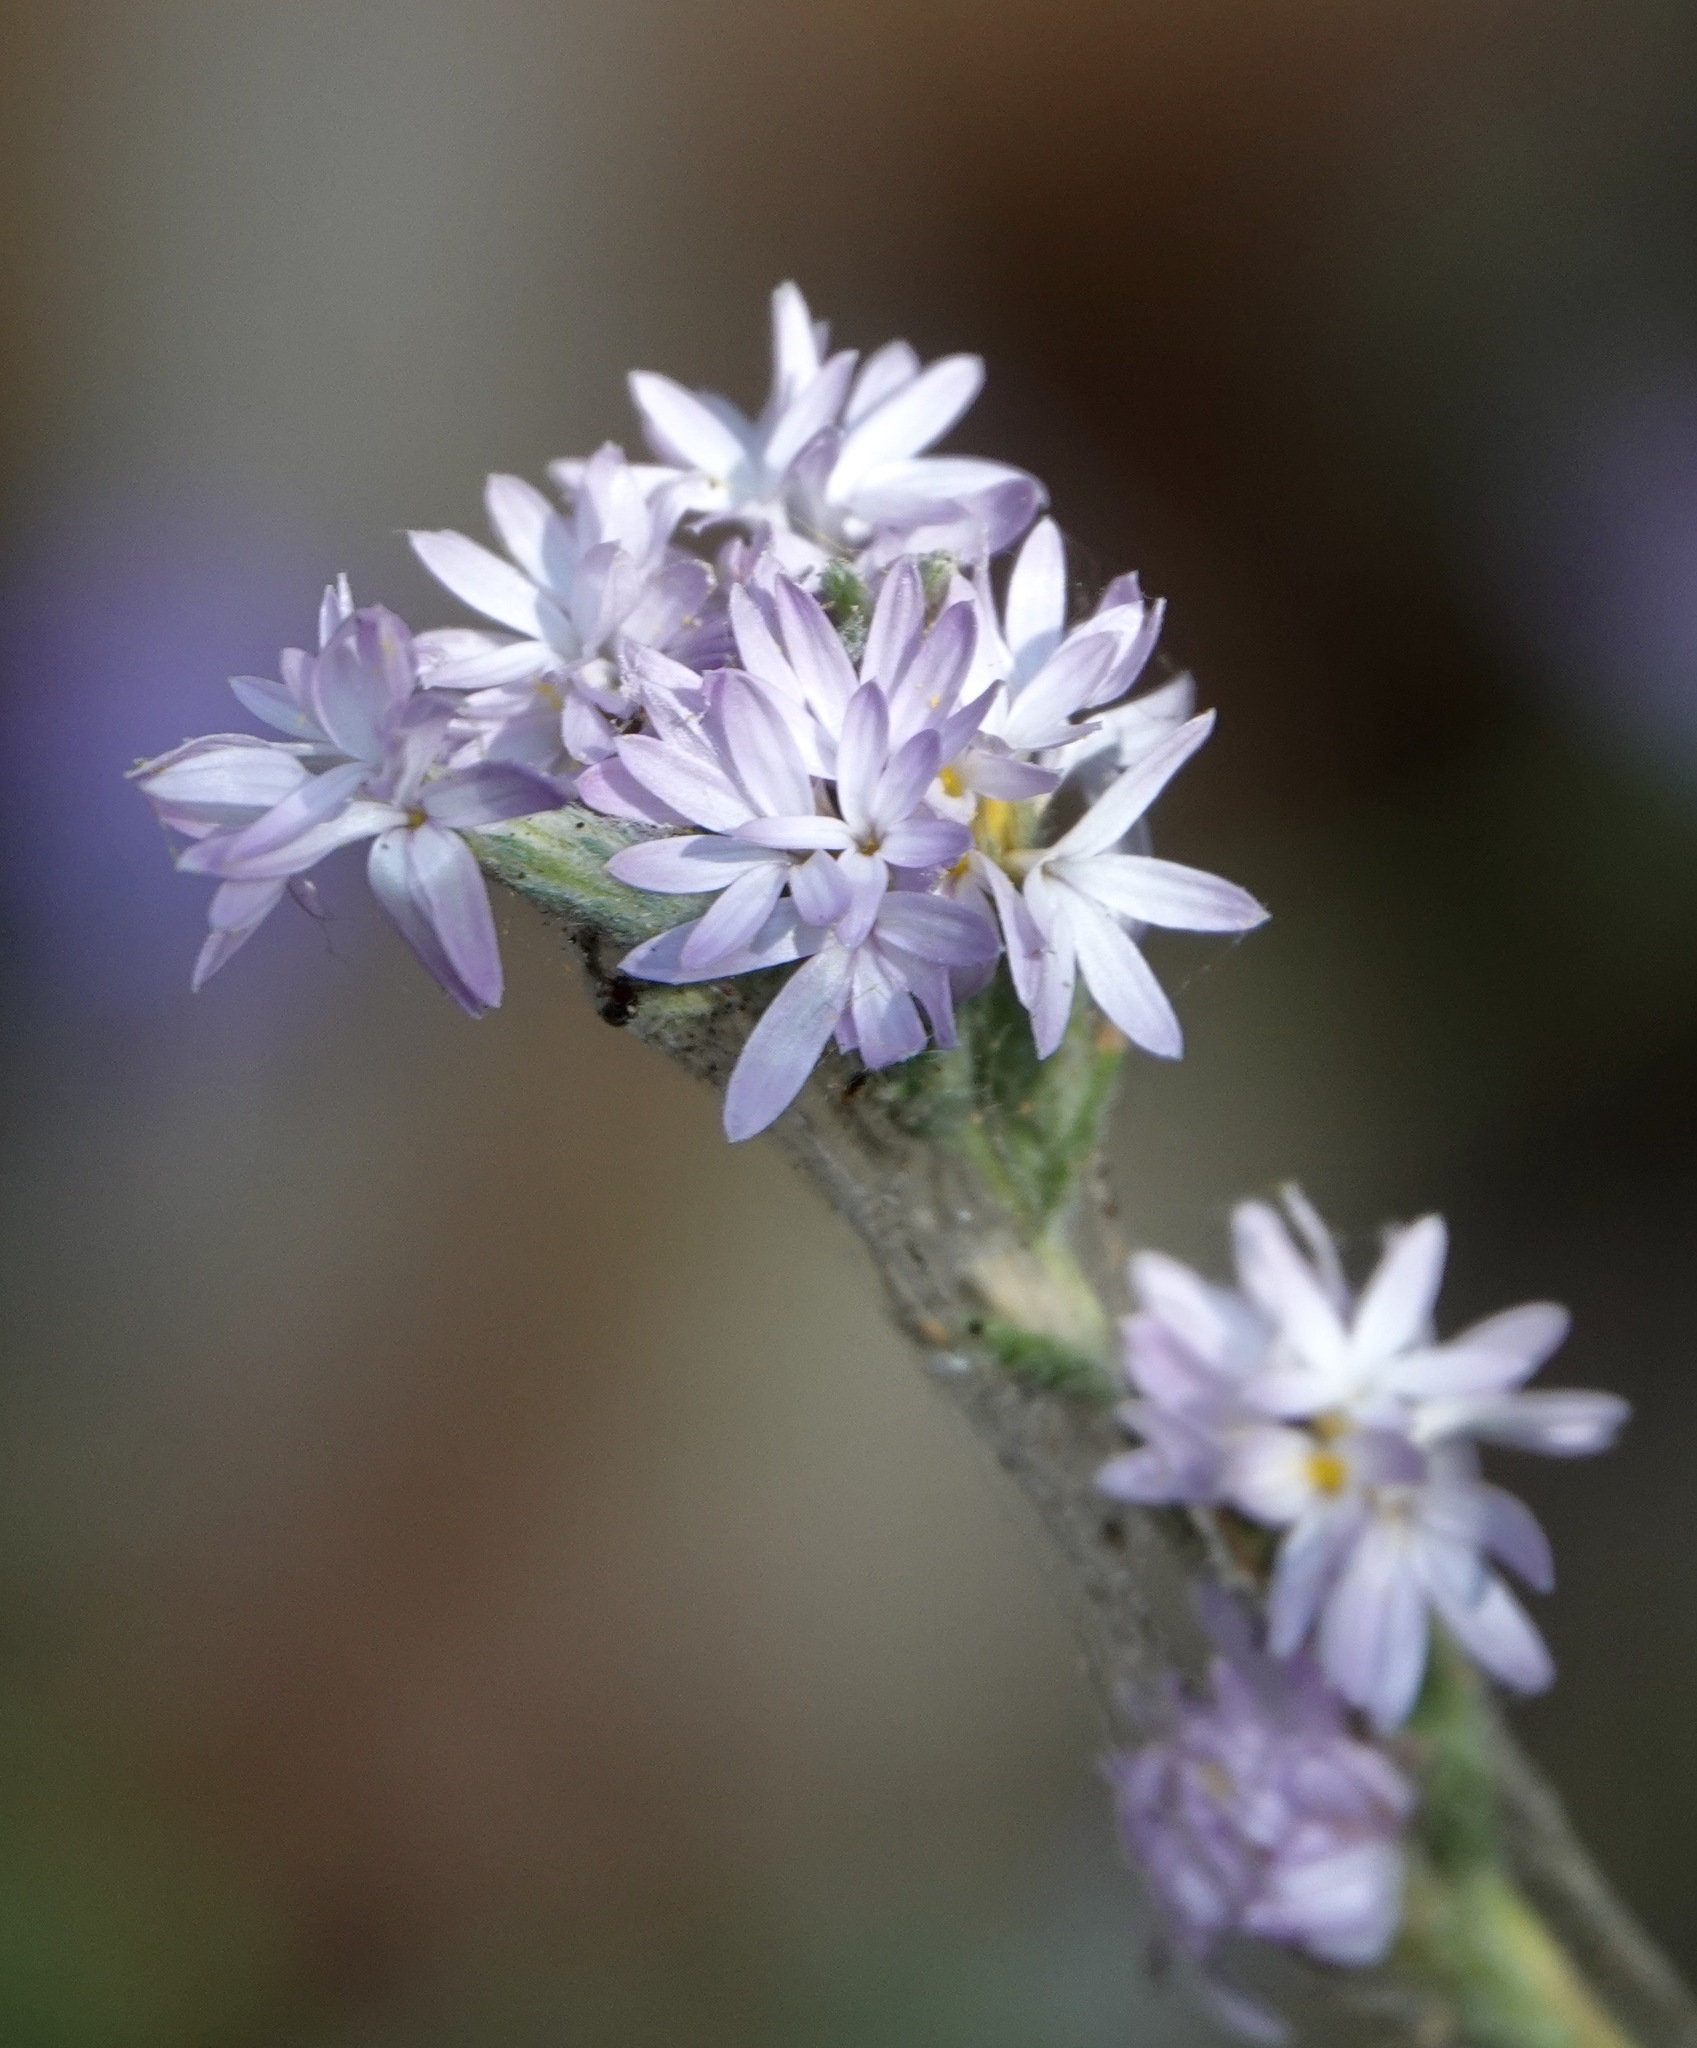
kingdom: Plantae
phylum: Tracheophyta
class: Magnoliopsida
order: Asterales
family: Asteraceae
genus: Lessingia
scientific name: Lessingia leptoclada
